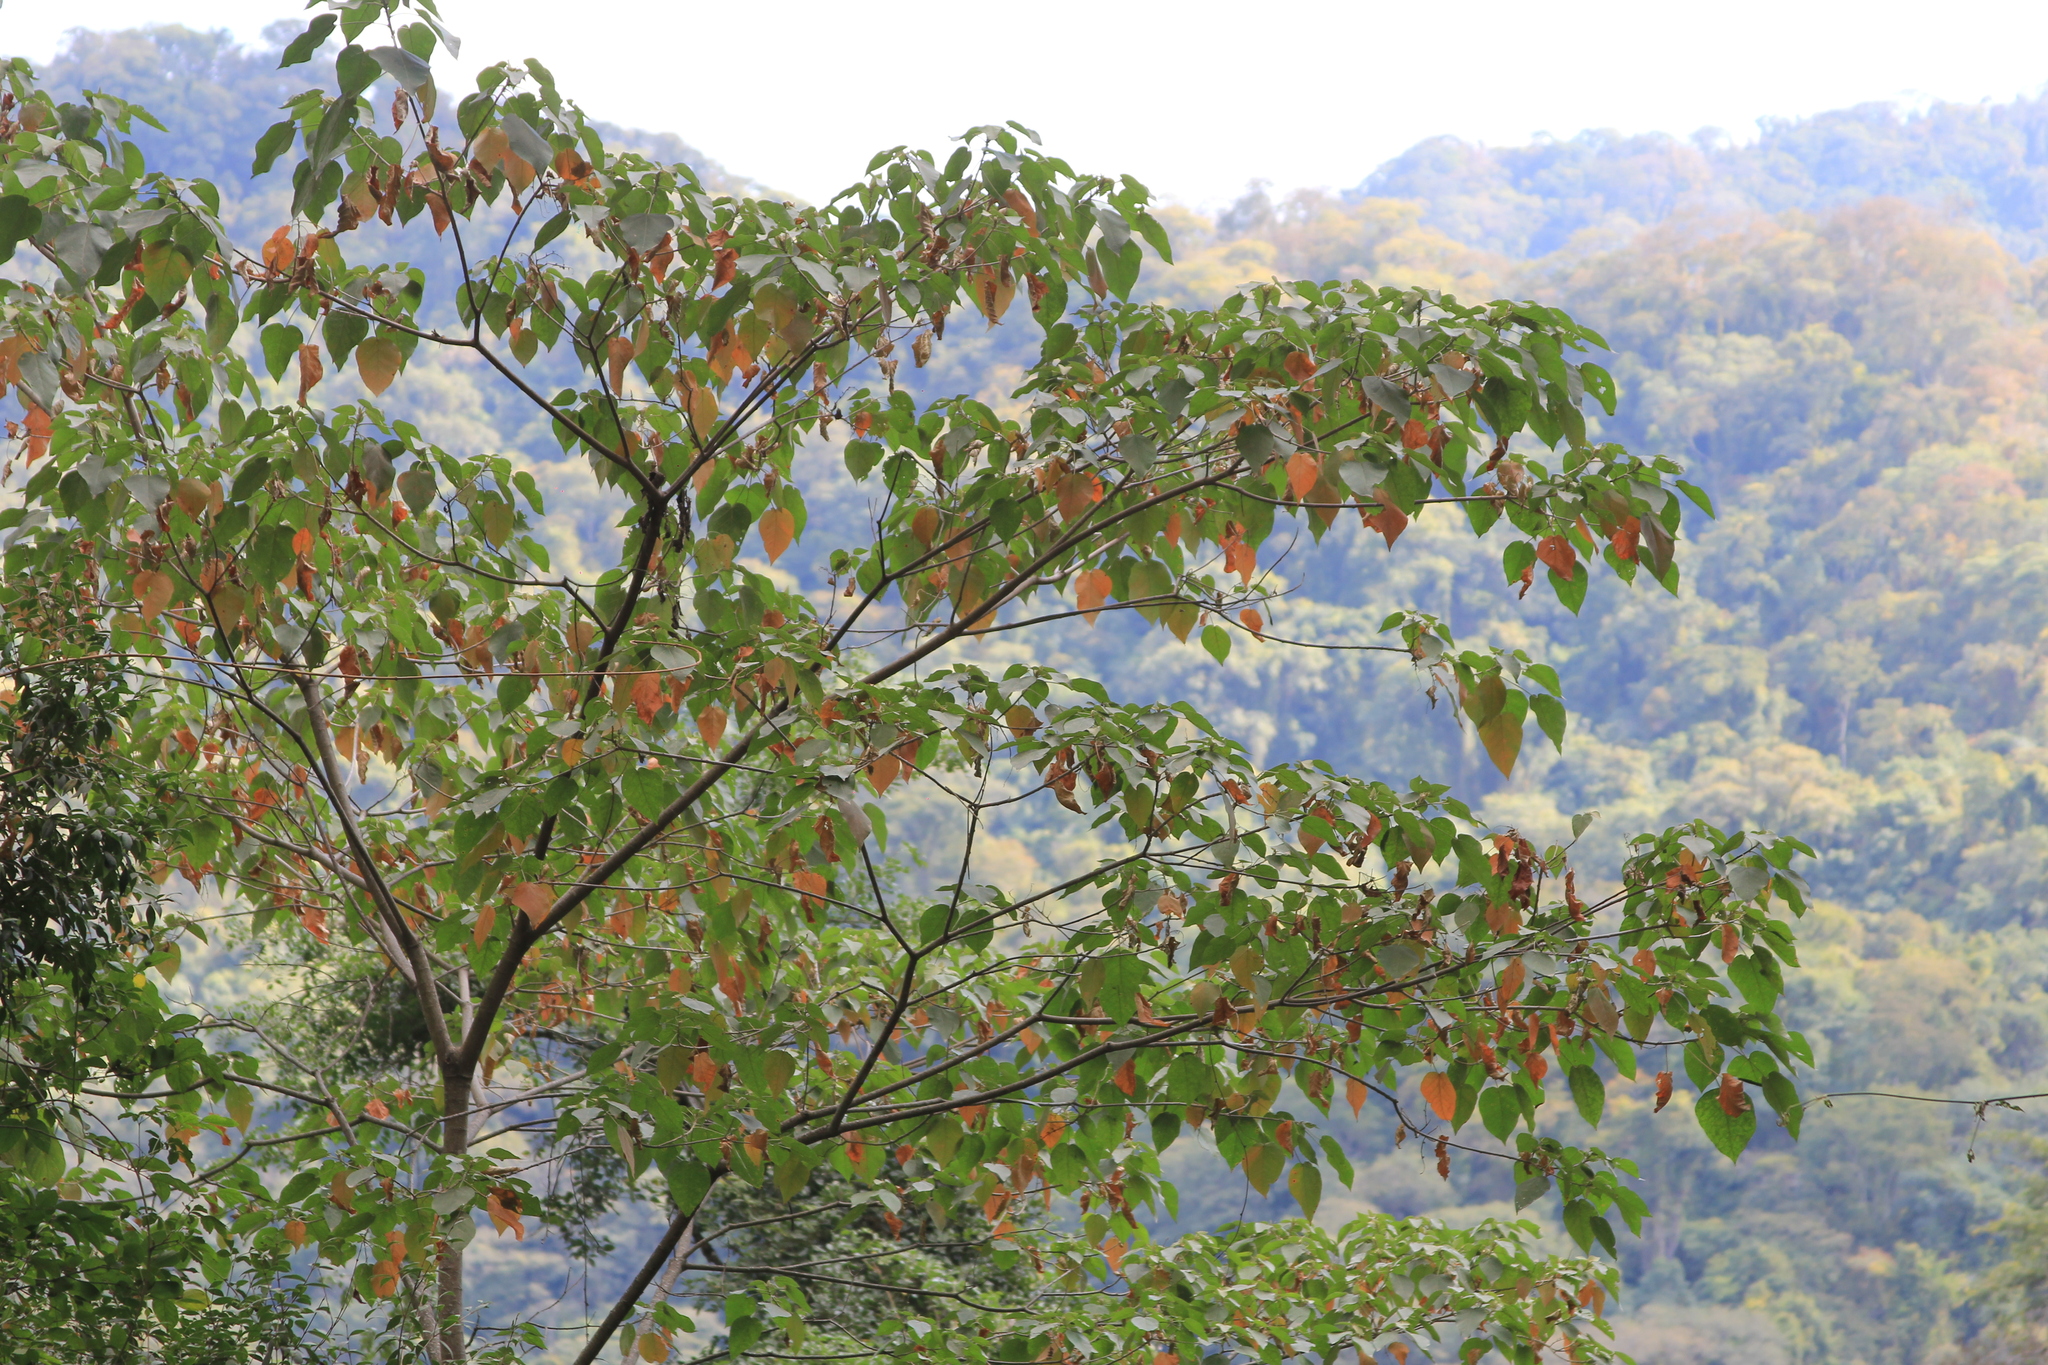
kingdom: Plantae
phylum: Tracheophyta
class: Magnoliopsida
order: Malpighiales
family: Euphorbiaceae
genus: Croton
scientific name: Croton piluliferus
